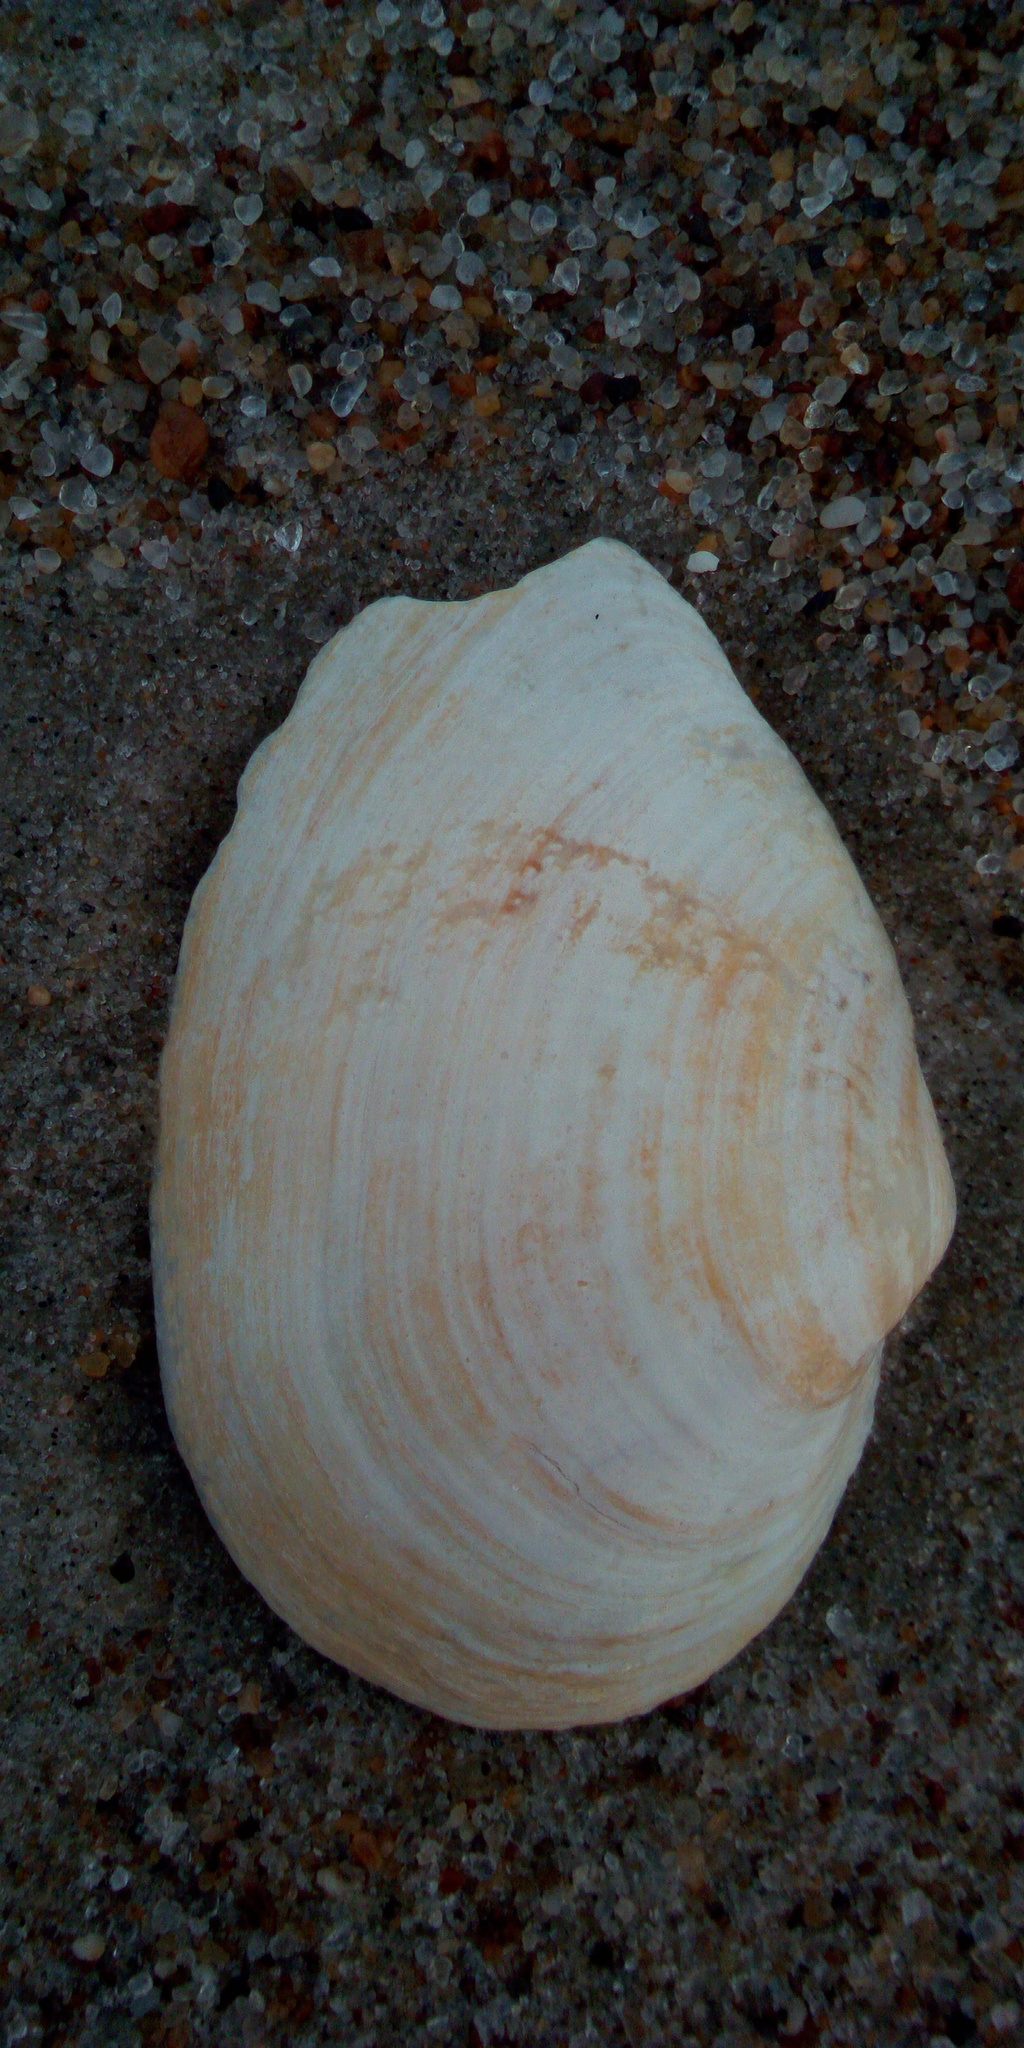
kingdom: Animalia
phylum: Mollusca
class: Bivalvia
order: Myida
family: Myidae
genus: Mya
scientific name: Mya arenaria
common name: Soft-shelled clam
